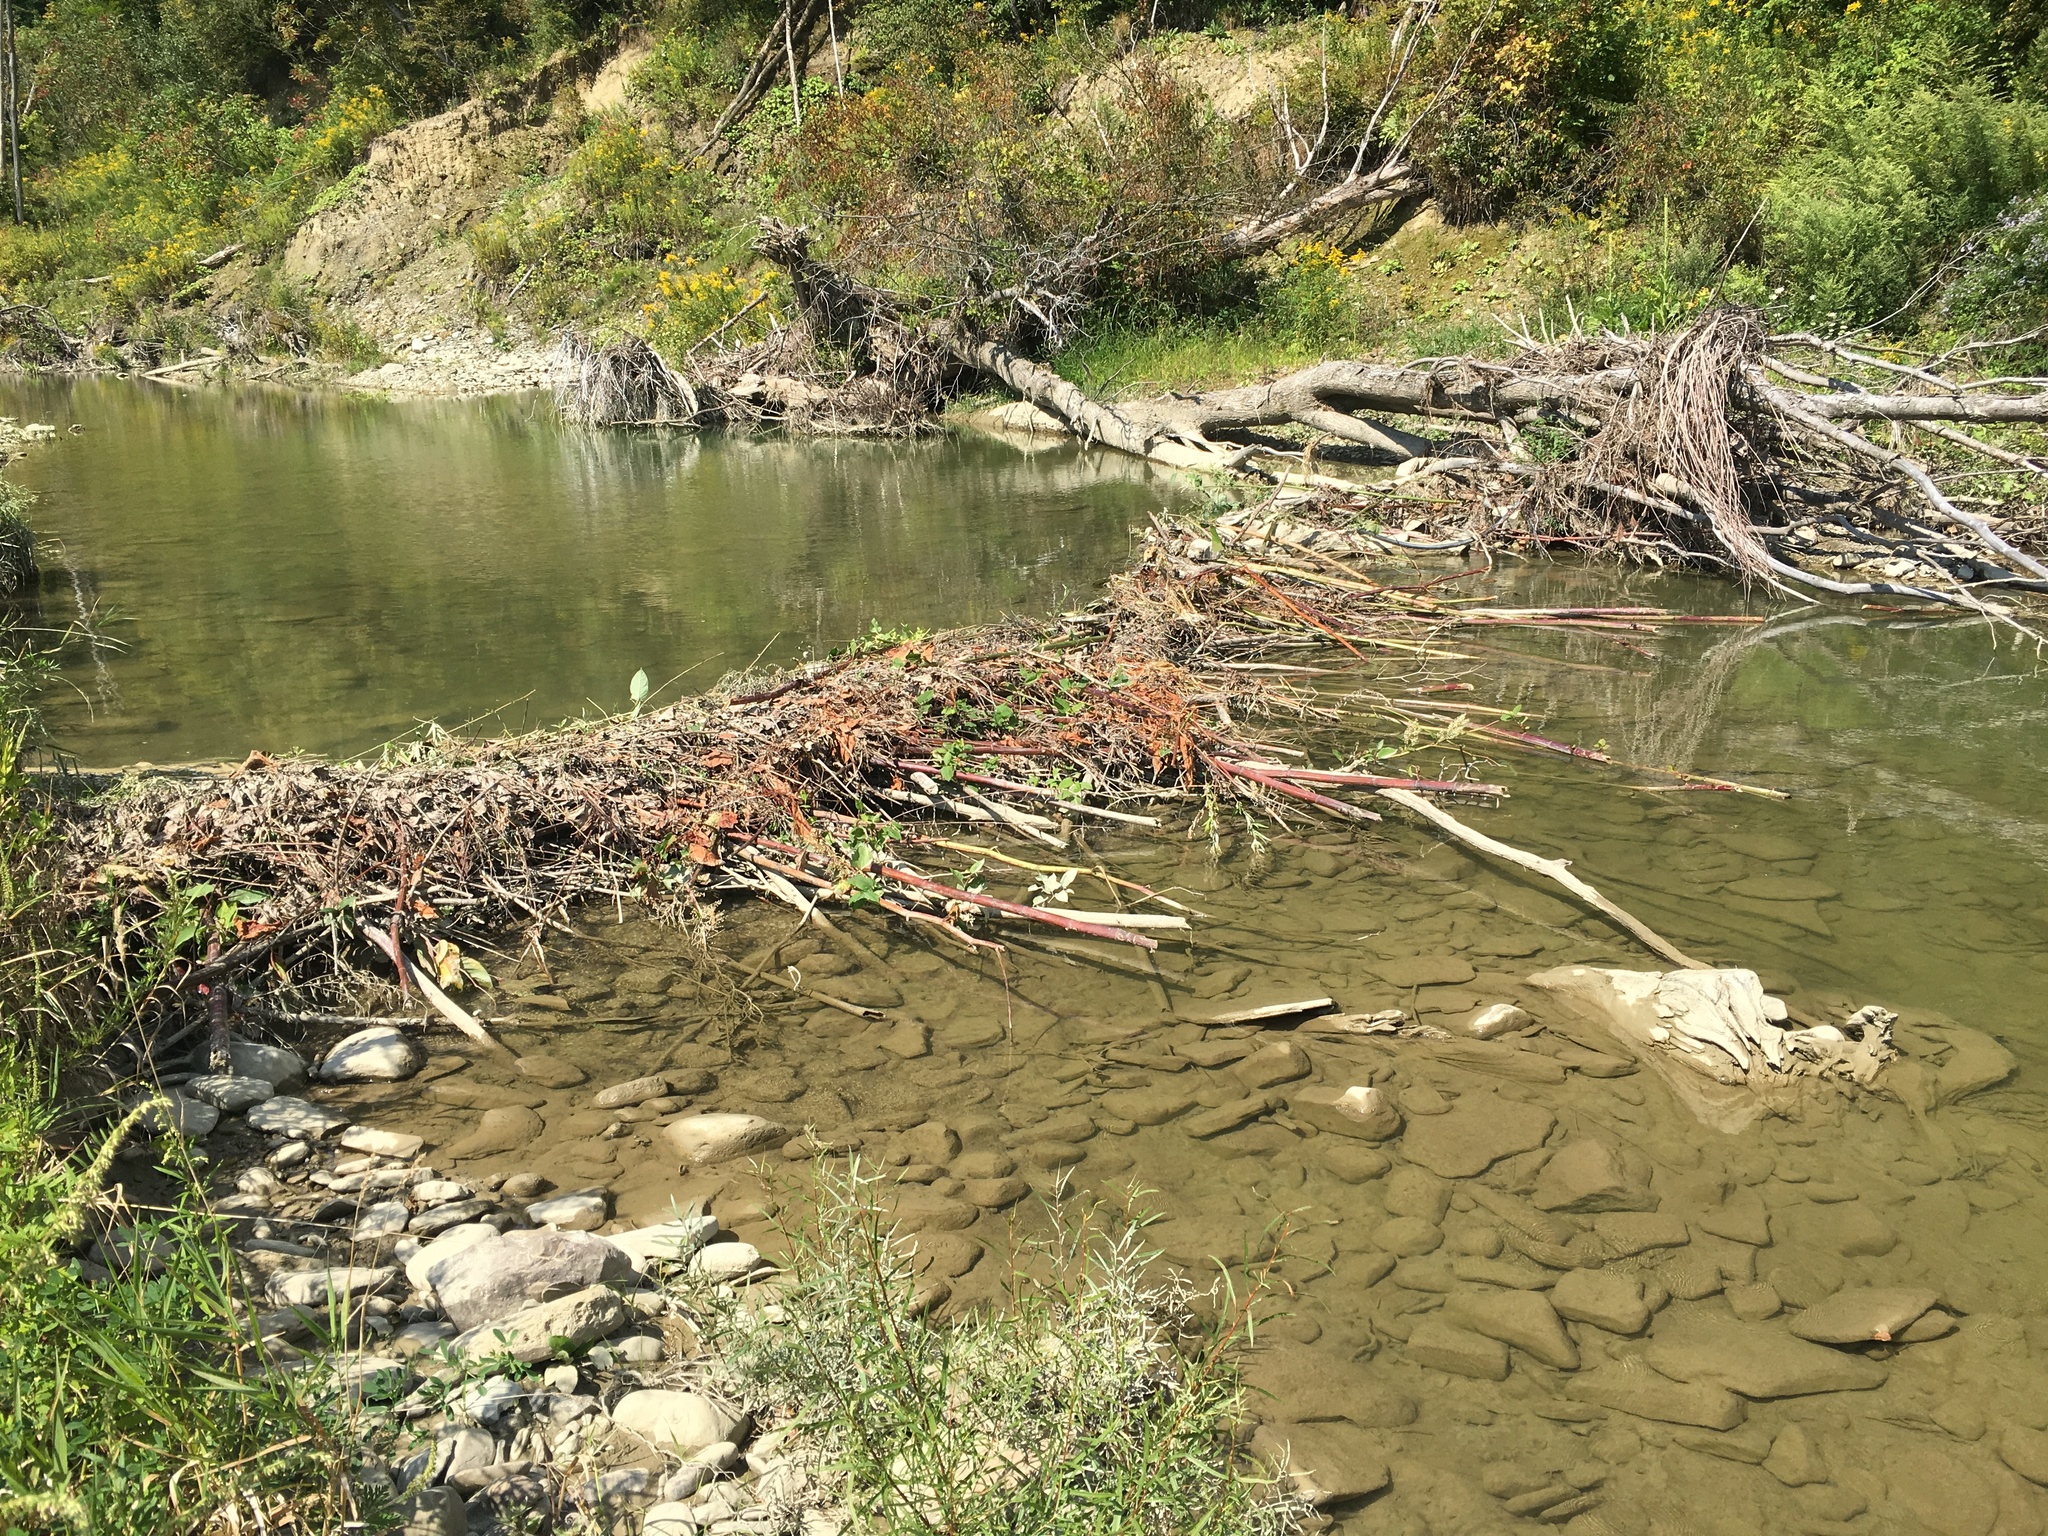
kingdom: Animalia
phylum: Chordata
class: Mammalia
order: Rodentia
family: Castoridae
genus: Castor
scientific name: Castor canadensis
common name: American beaver
